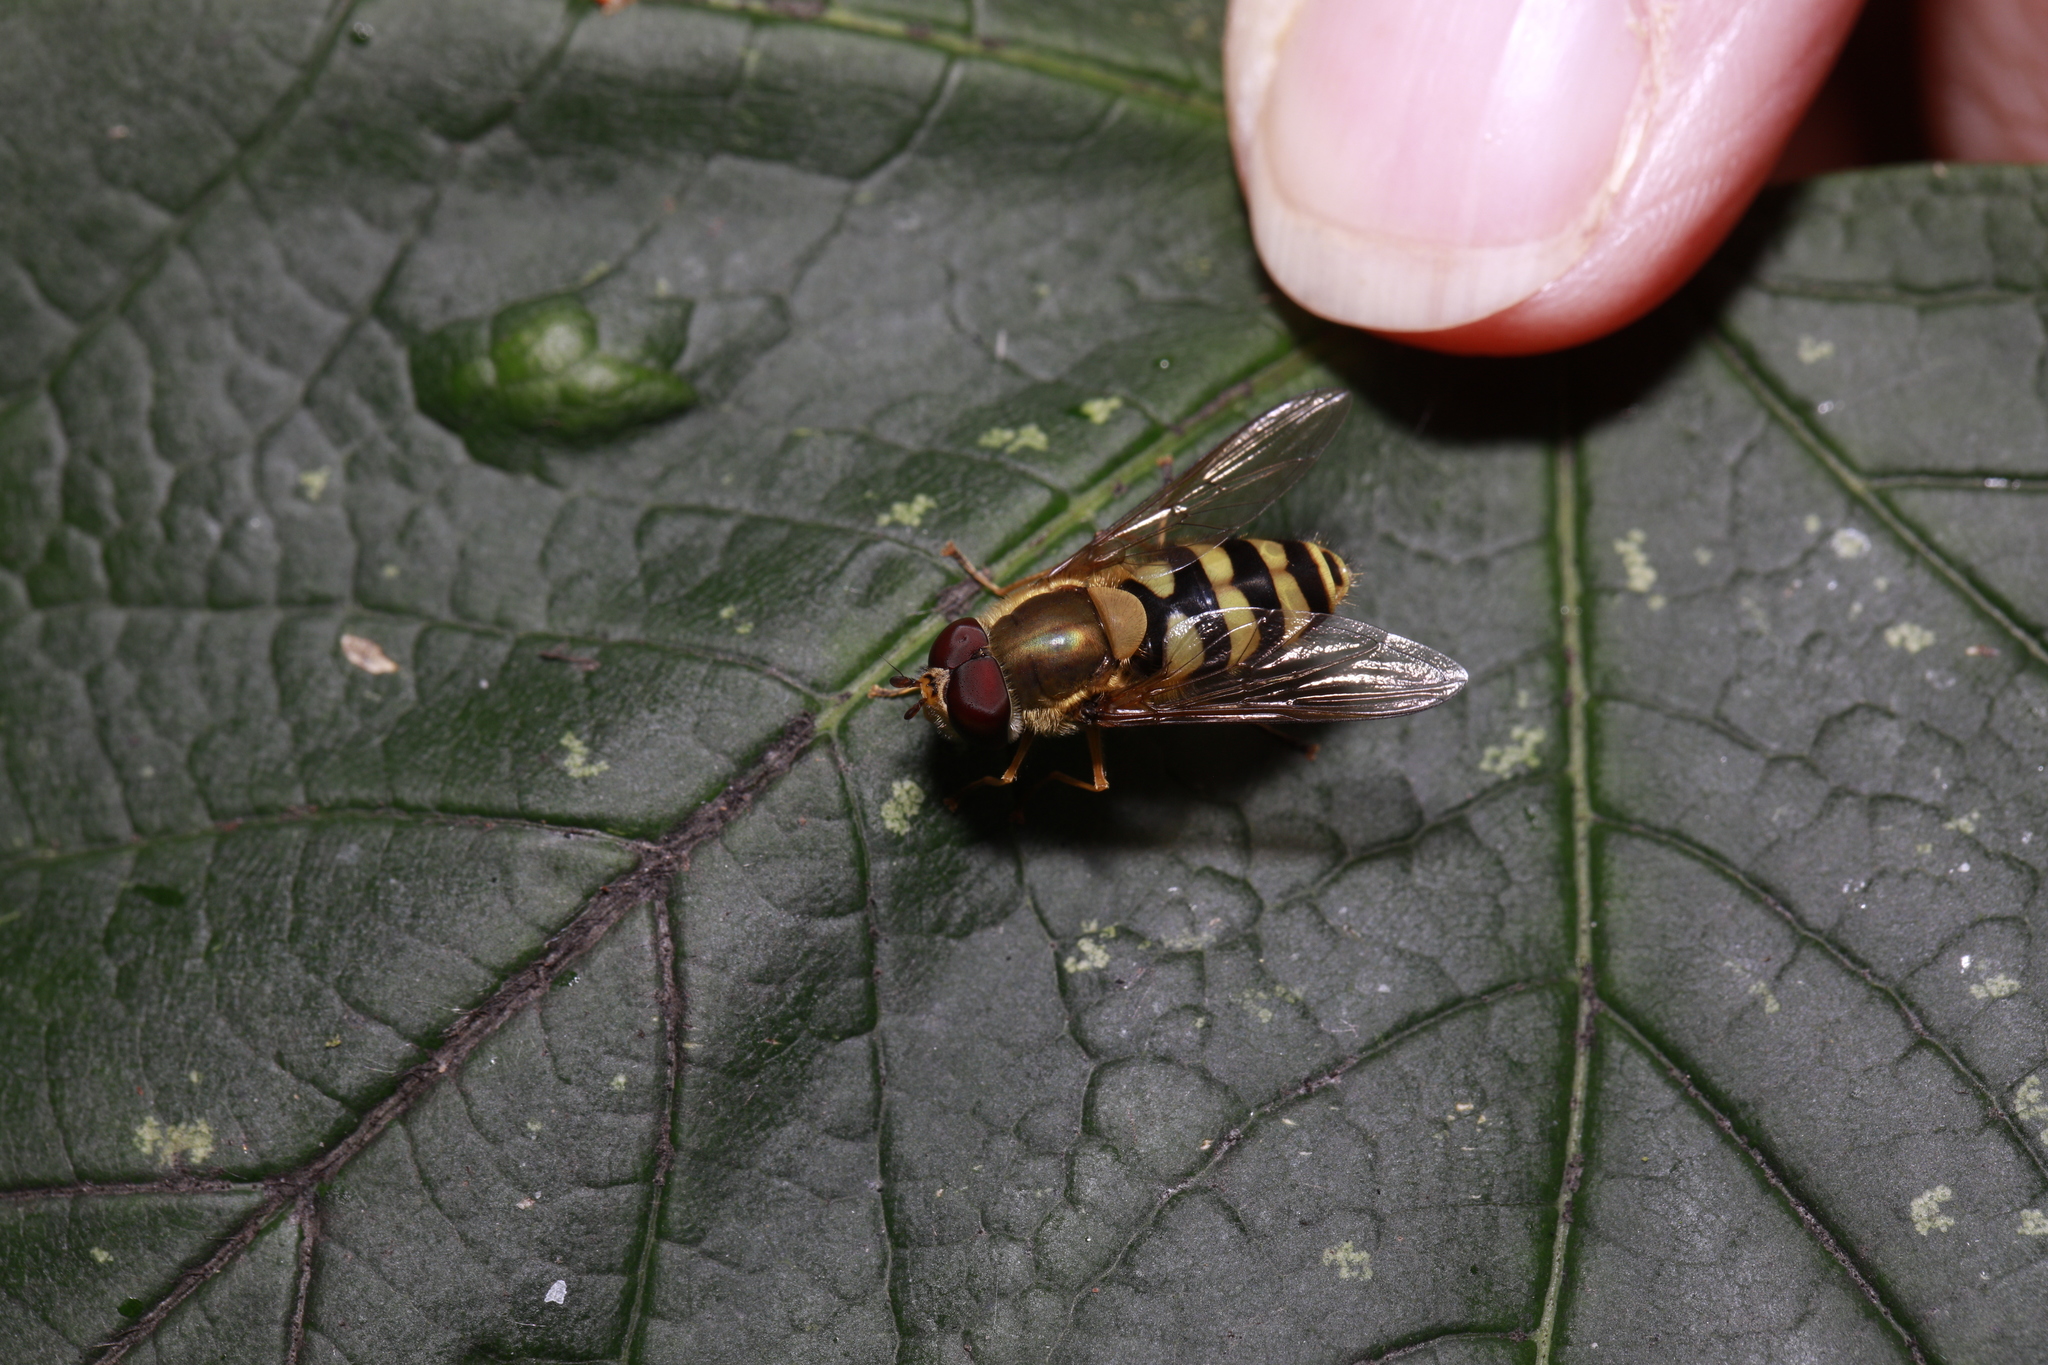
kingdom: Animalia
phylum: Arthropoda
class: Insecta
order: Diptera
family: Syrphidae
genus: Syrphus
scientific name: Syrphus
